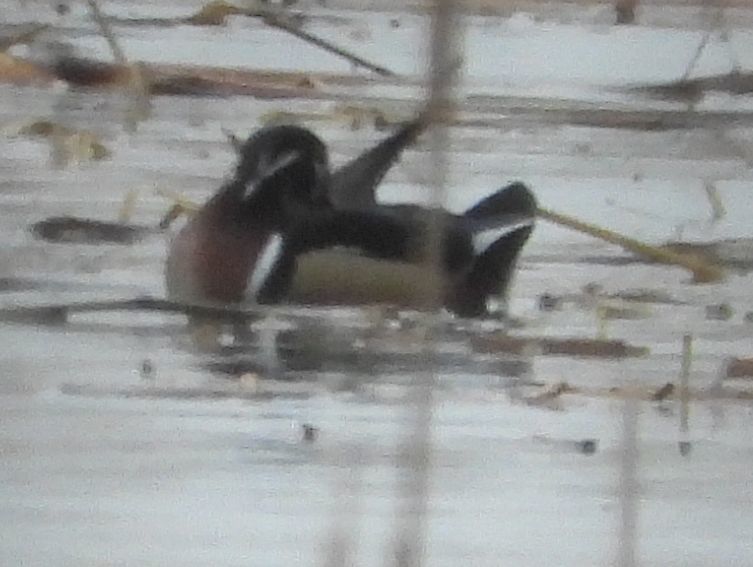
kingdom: Animalia
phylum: Chordata
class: Aves
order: Anseriformes
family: Anatidae
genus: Aix
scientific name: Aix sponsa
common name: Wood duck
